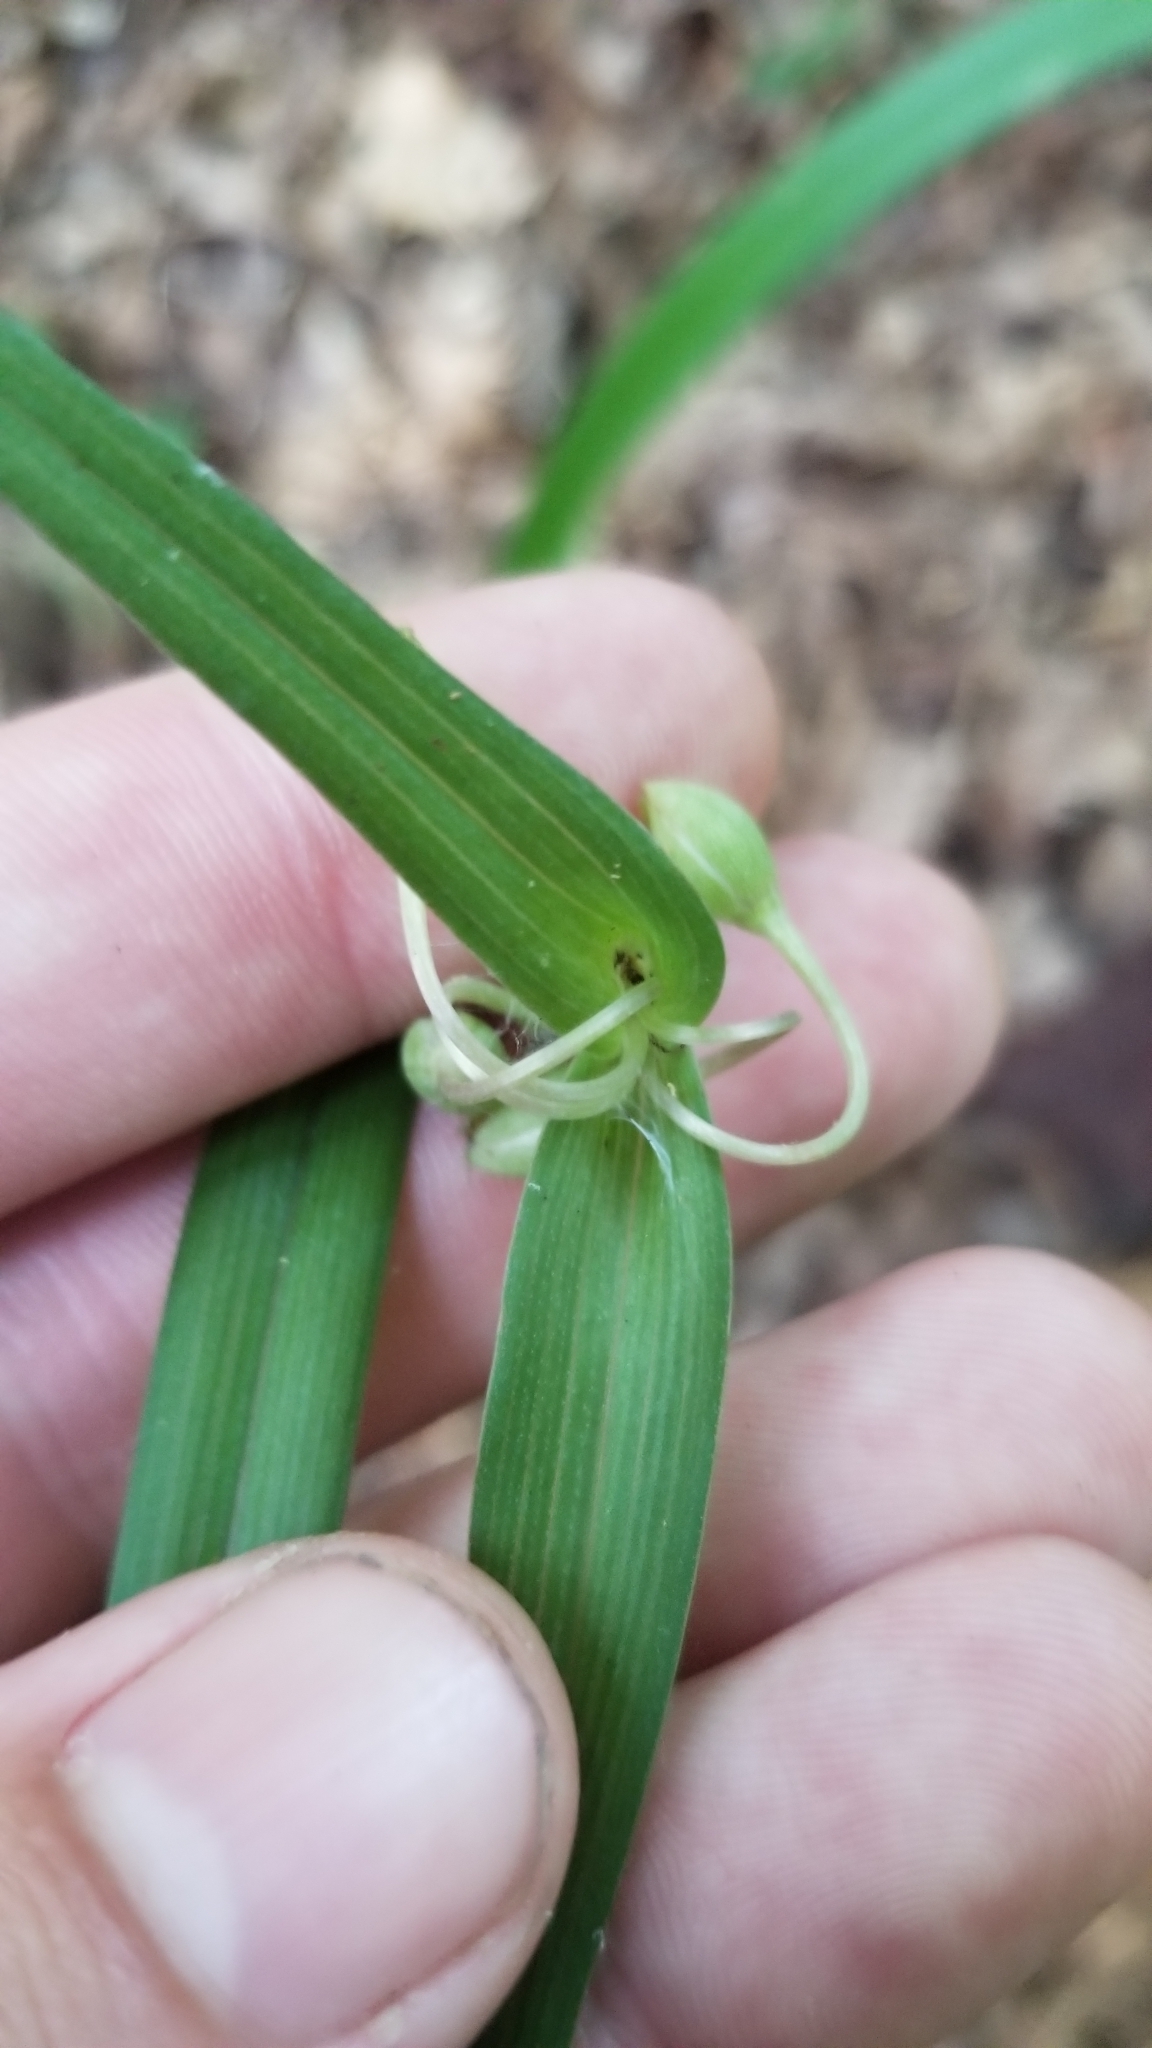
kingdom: Plantae
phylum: Tracheophyta
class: Liliopsida
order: Commelinales
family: Commelinaceae
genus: Tradescantia
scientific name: Tradescantia hirsutiflora
